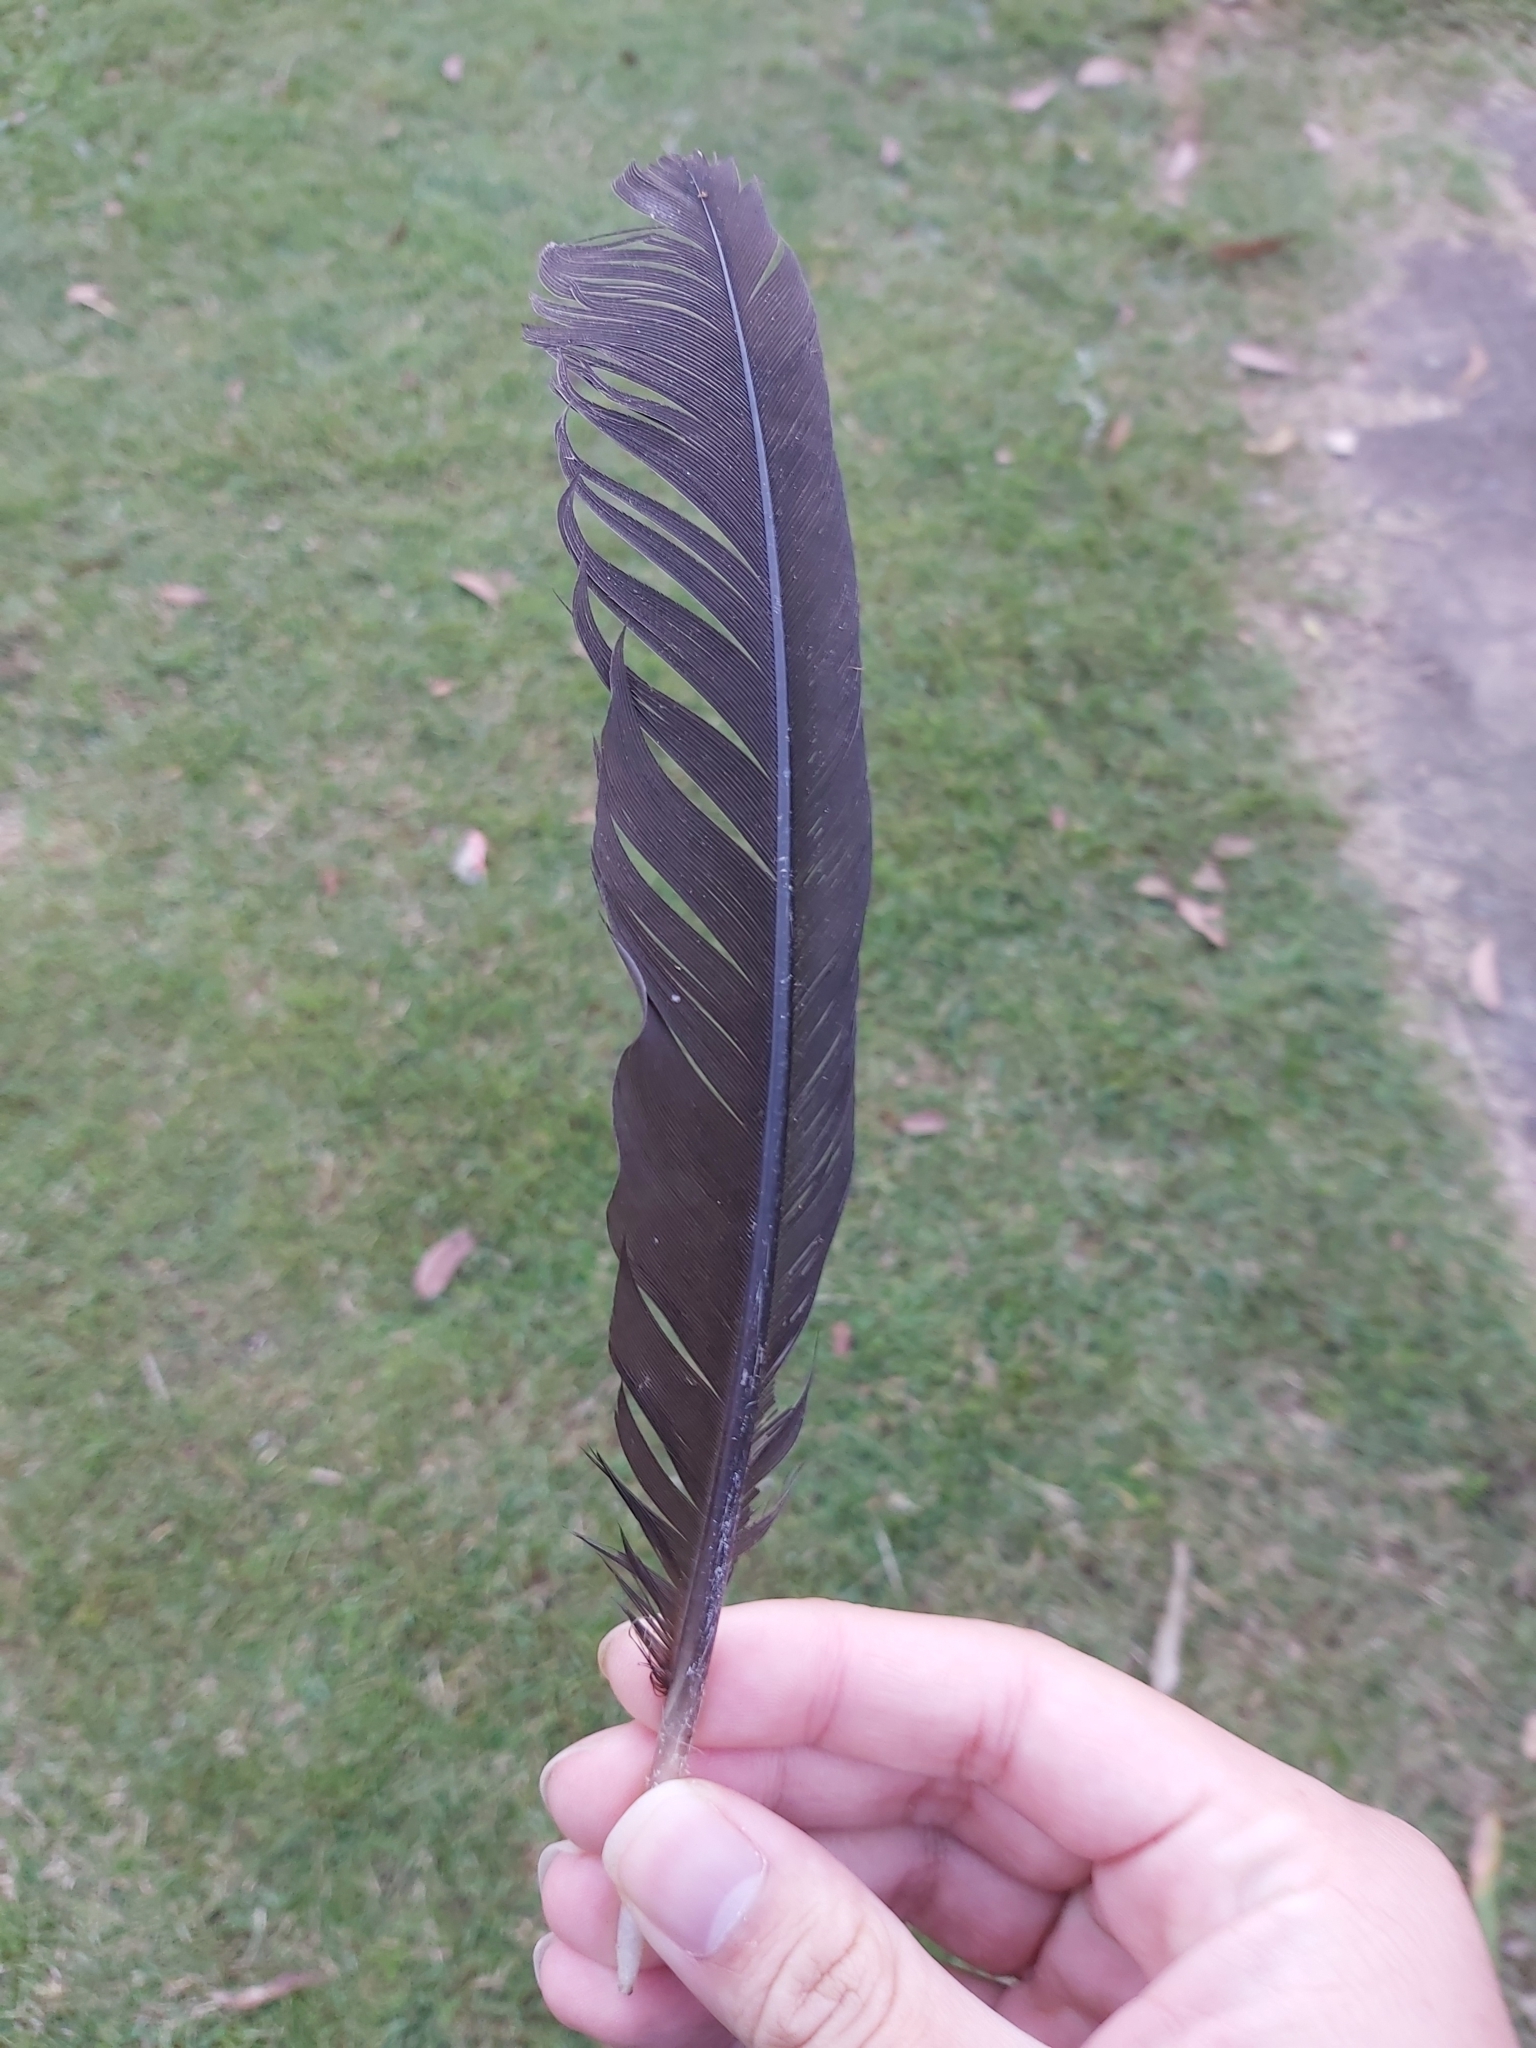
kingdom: Animalia
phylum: Chordata
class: Aves
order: Galliformes
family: Megapodiidae
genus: Alectura
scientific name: Alectura lathami
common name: Australian brushturkey
